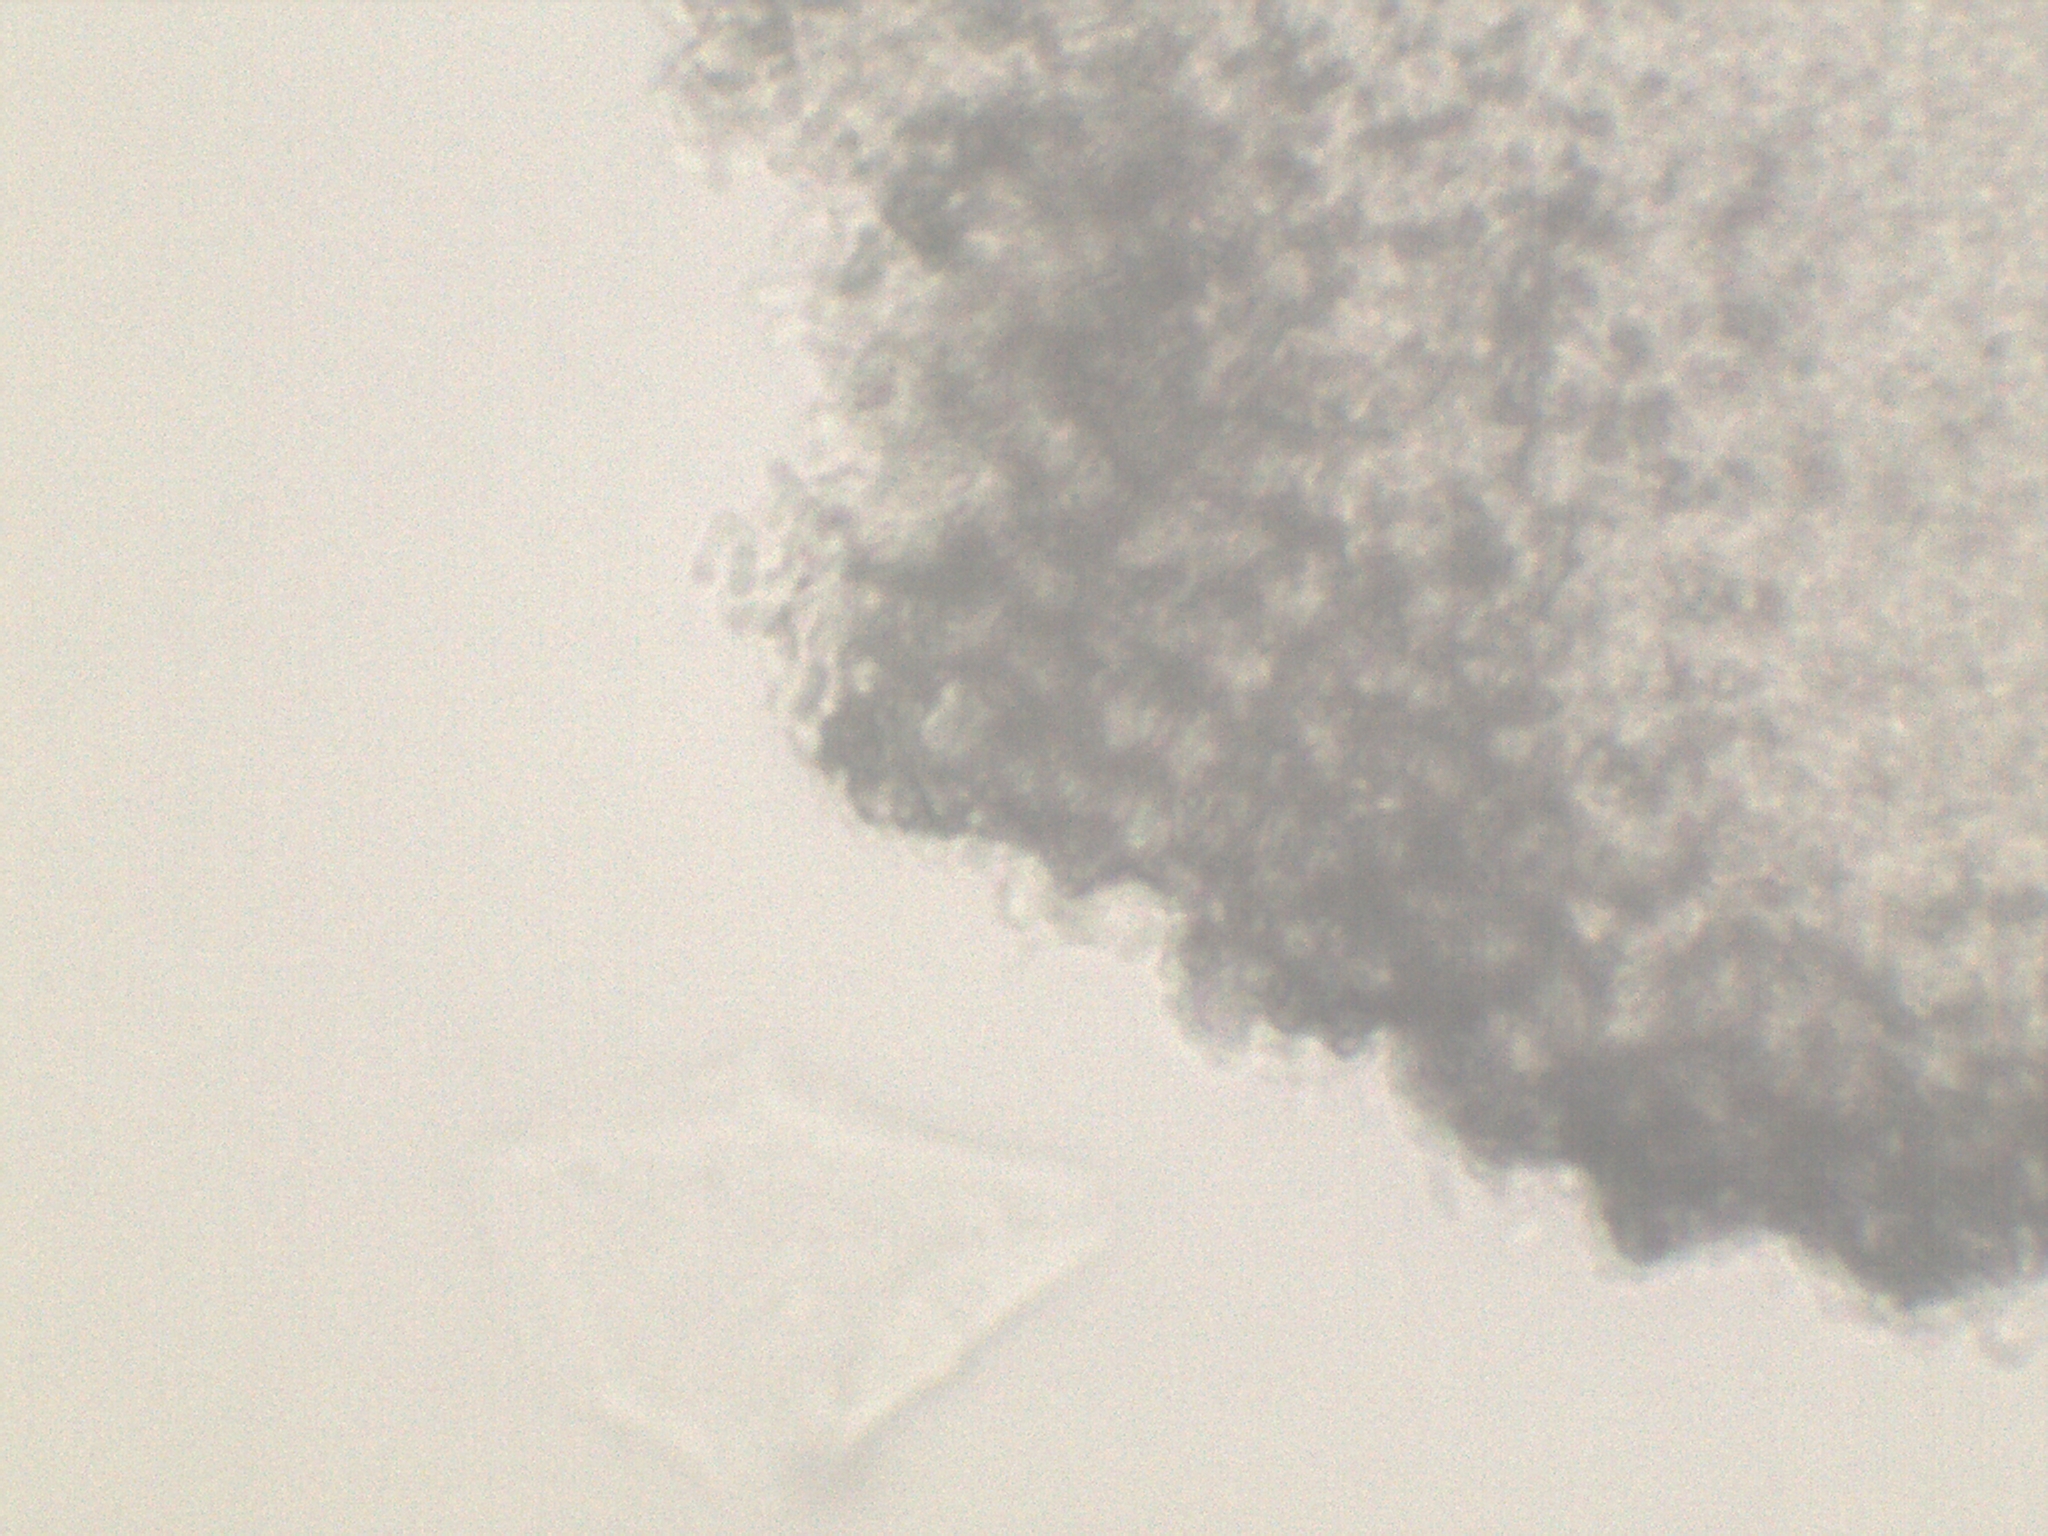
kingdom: Fungi
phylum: Basidiomycota
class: Agaricomycetes
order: Polyporales
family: Meruliaceae
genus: Bulbillomyces
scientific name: Bulbillomyces farinosus
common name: Couscous crust
